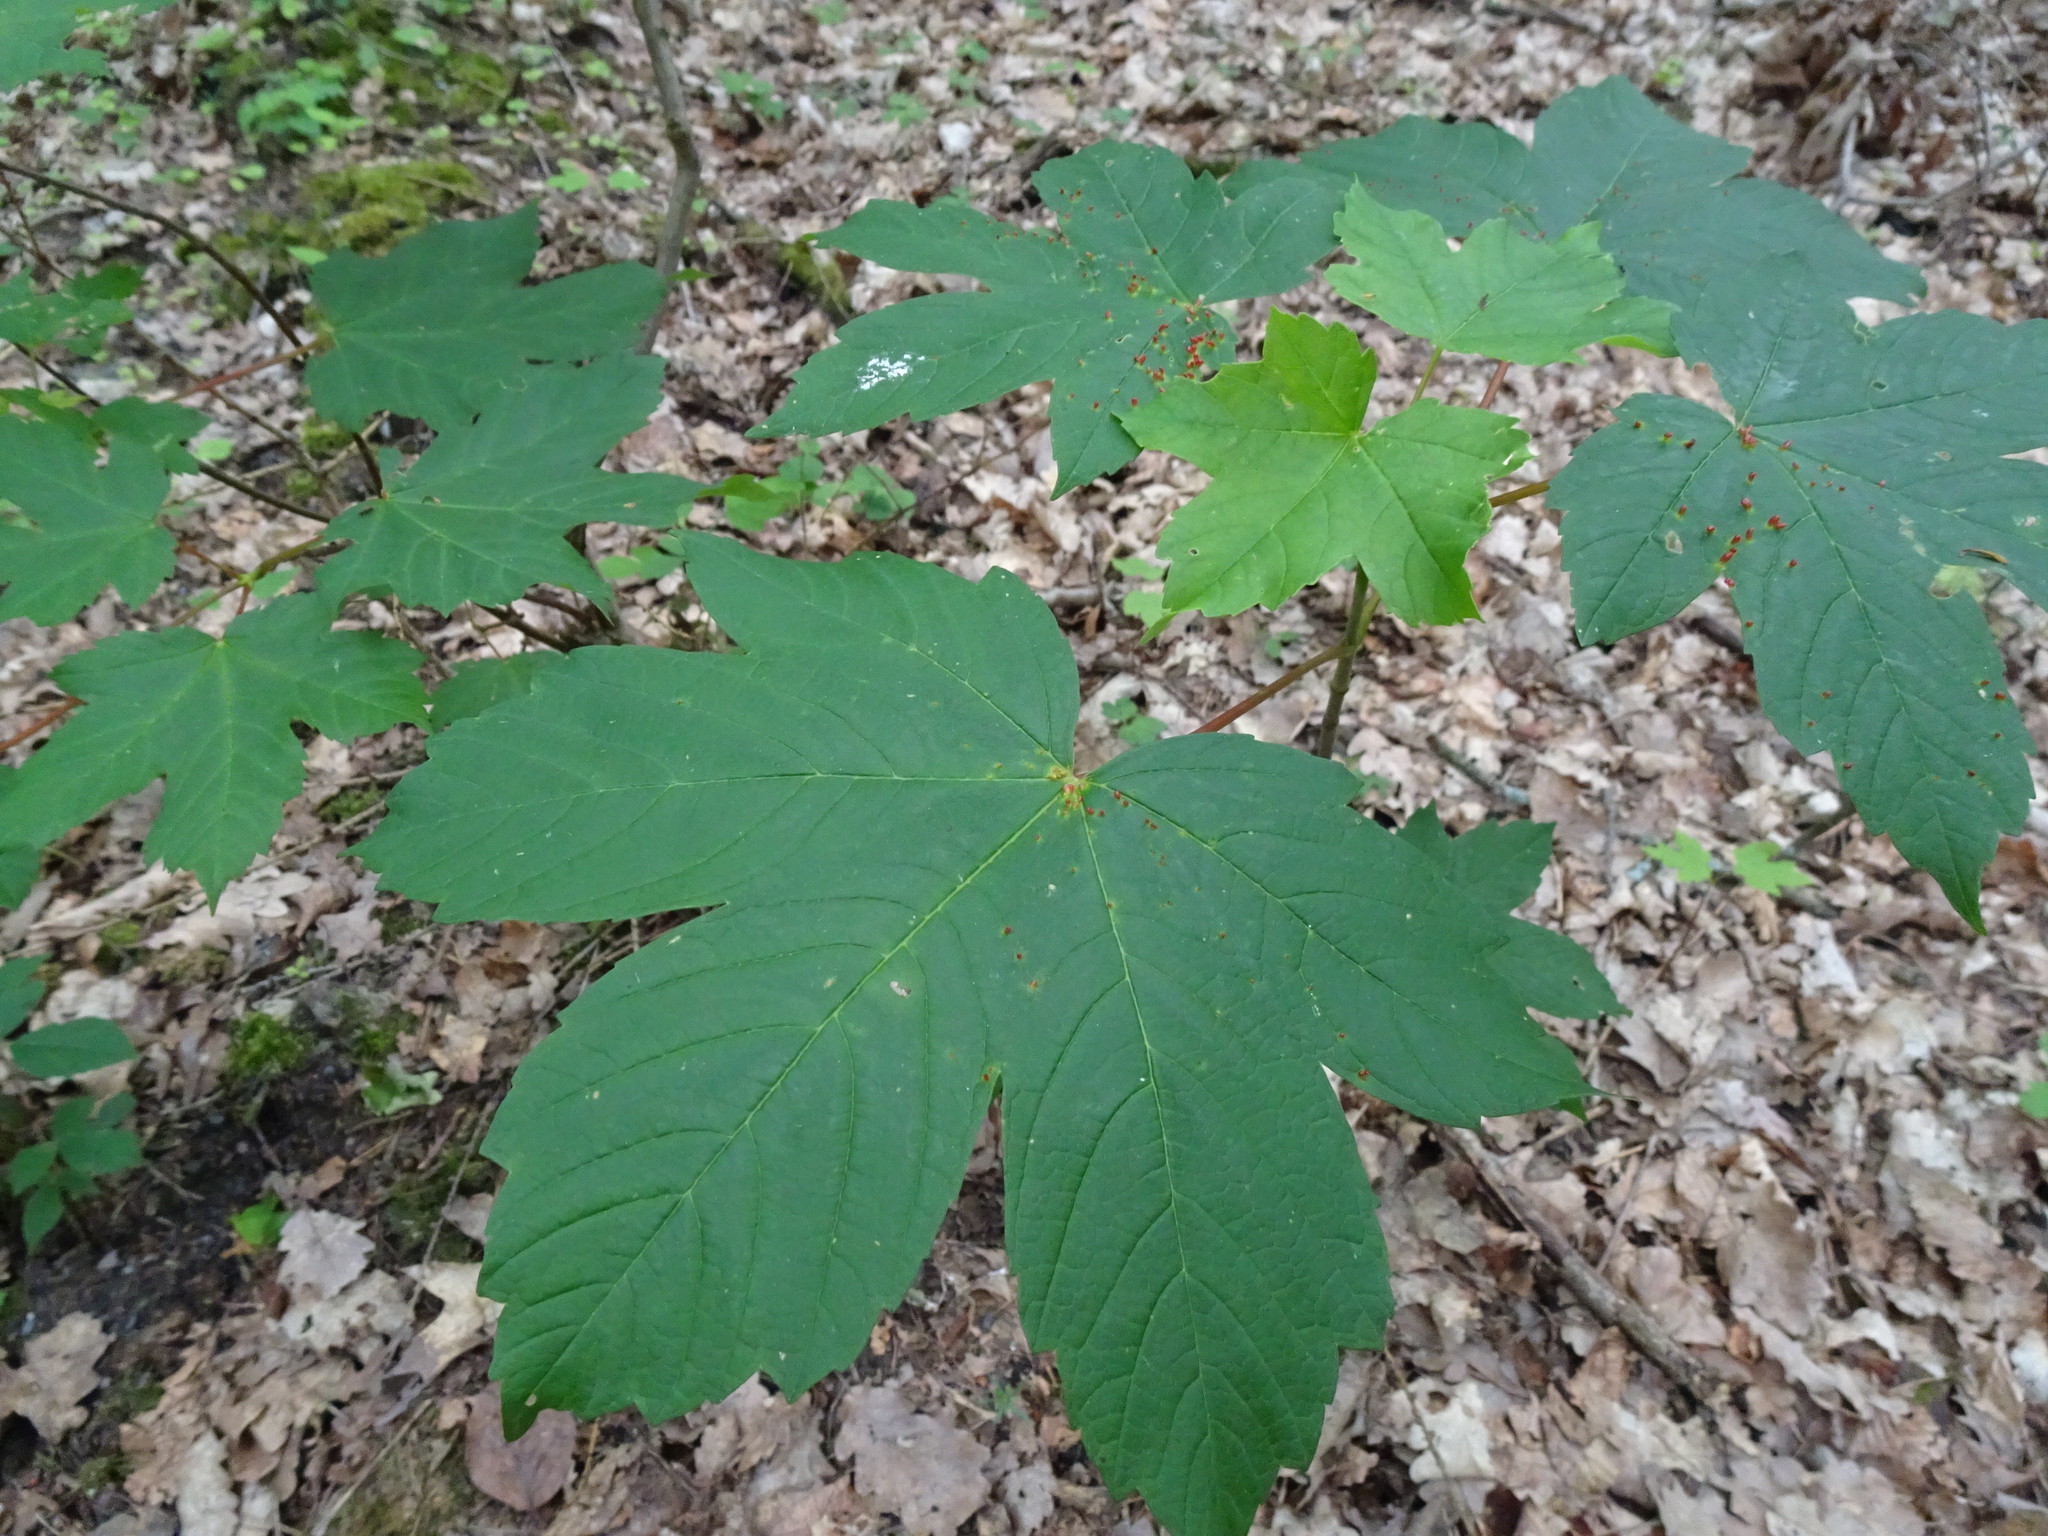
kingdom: Plantae
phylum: Tracheophyta
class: Magnoliopsida
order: Sapindales
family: Sapindaceae
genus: Acer
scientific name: Acer pseudoplatanus
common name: Sycamore
